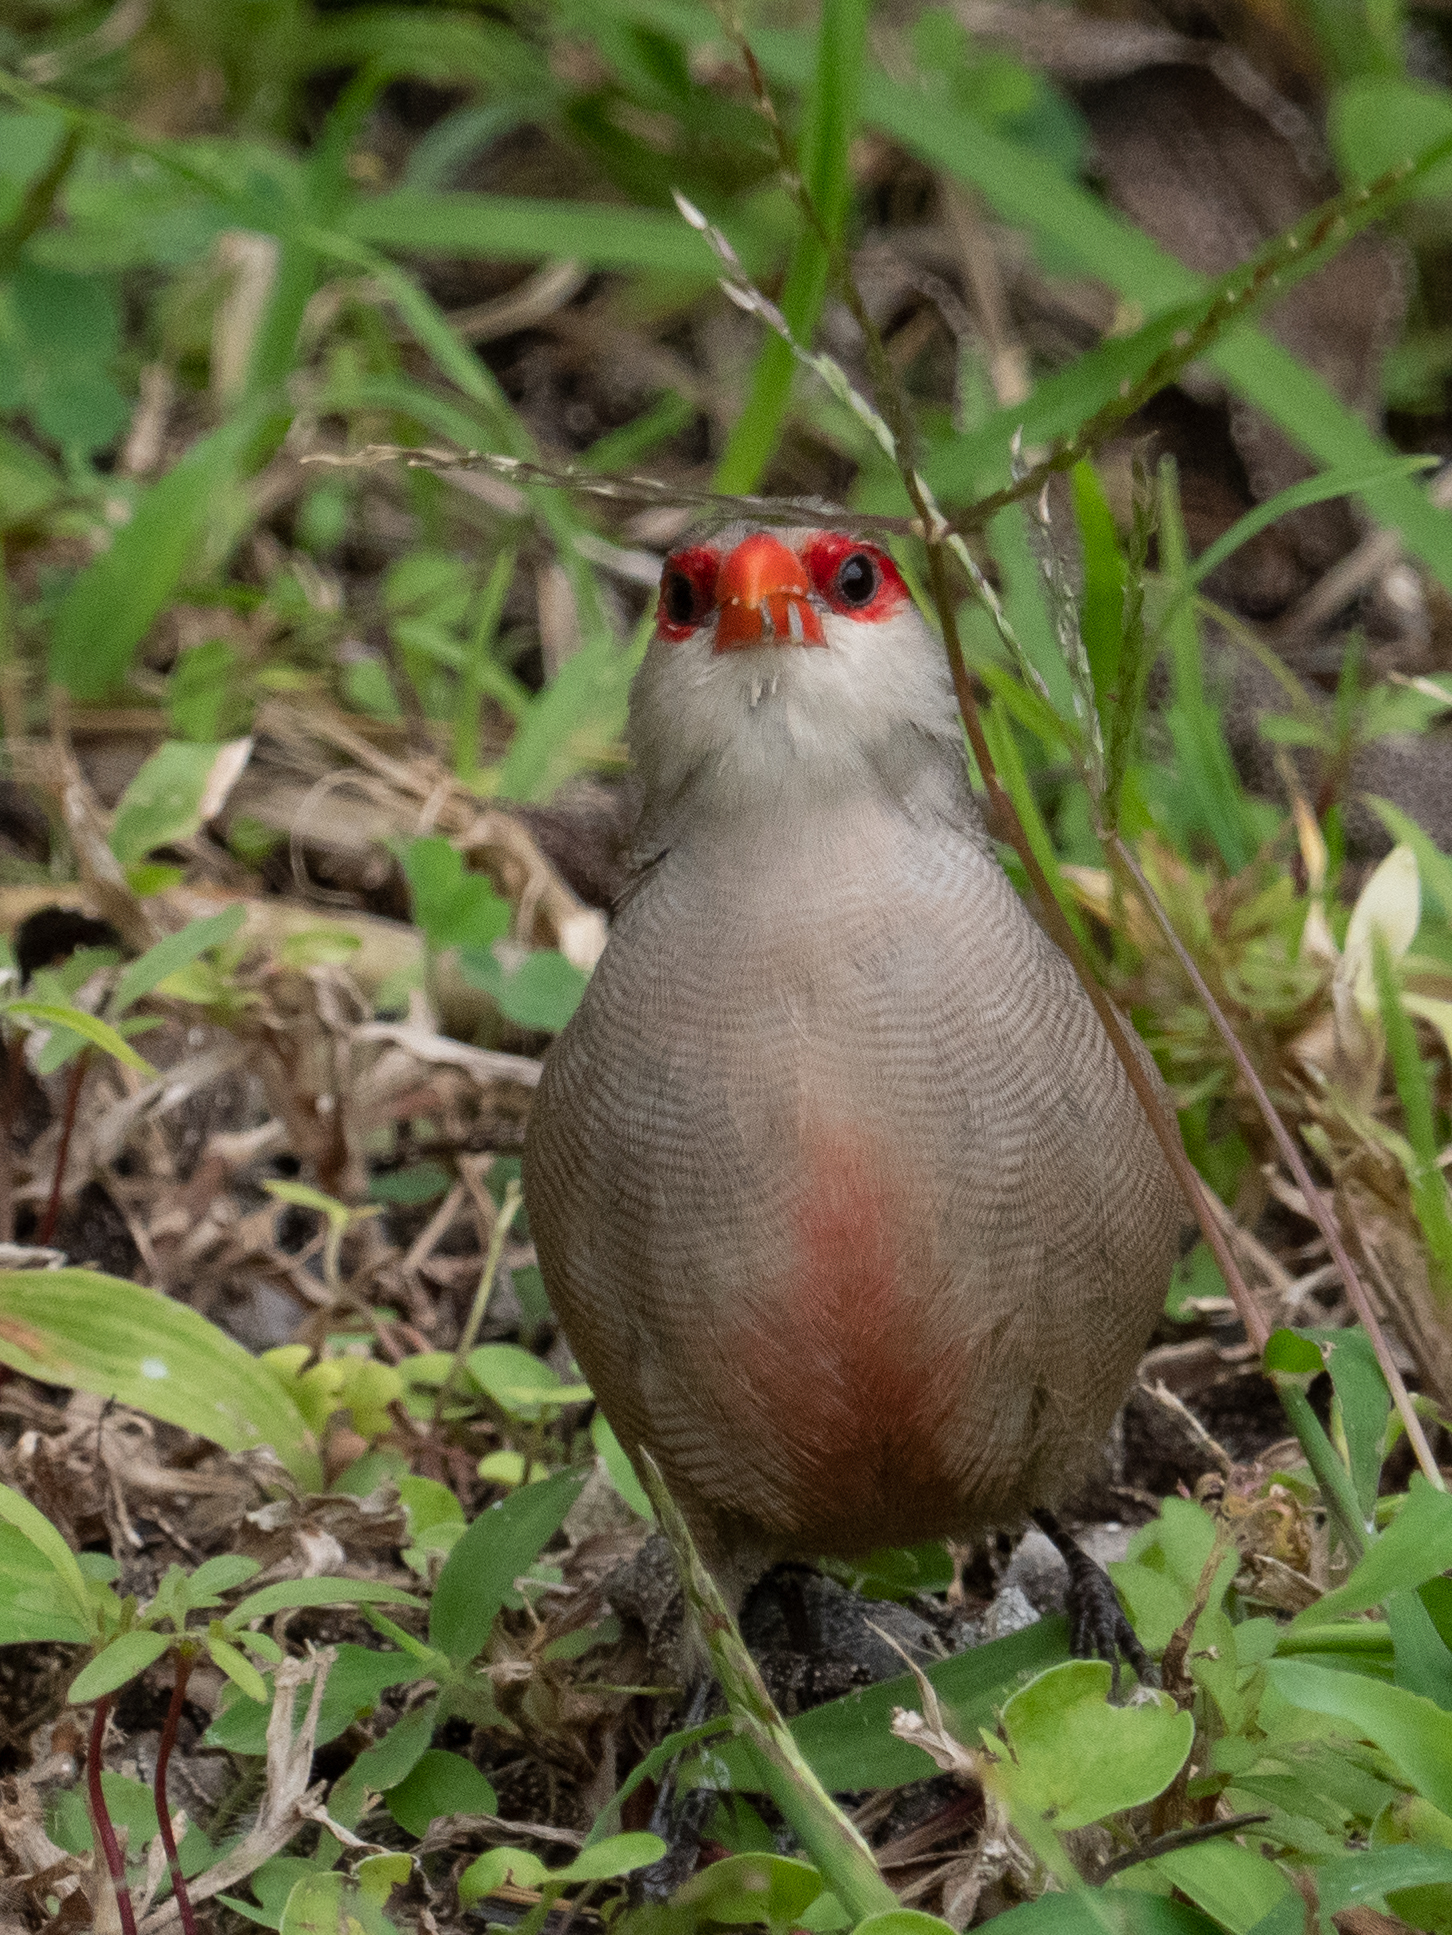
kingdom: Animalia
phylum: Chordata
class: Aves
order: Passeriformes
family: Estrildidae
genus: Estrilda
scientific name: Estrilda astrild
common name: Common waxbill
